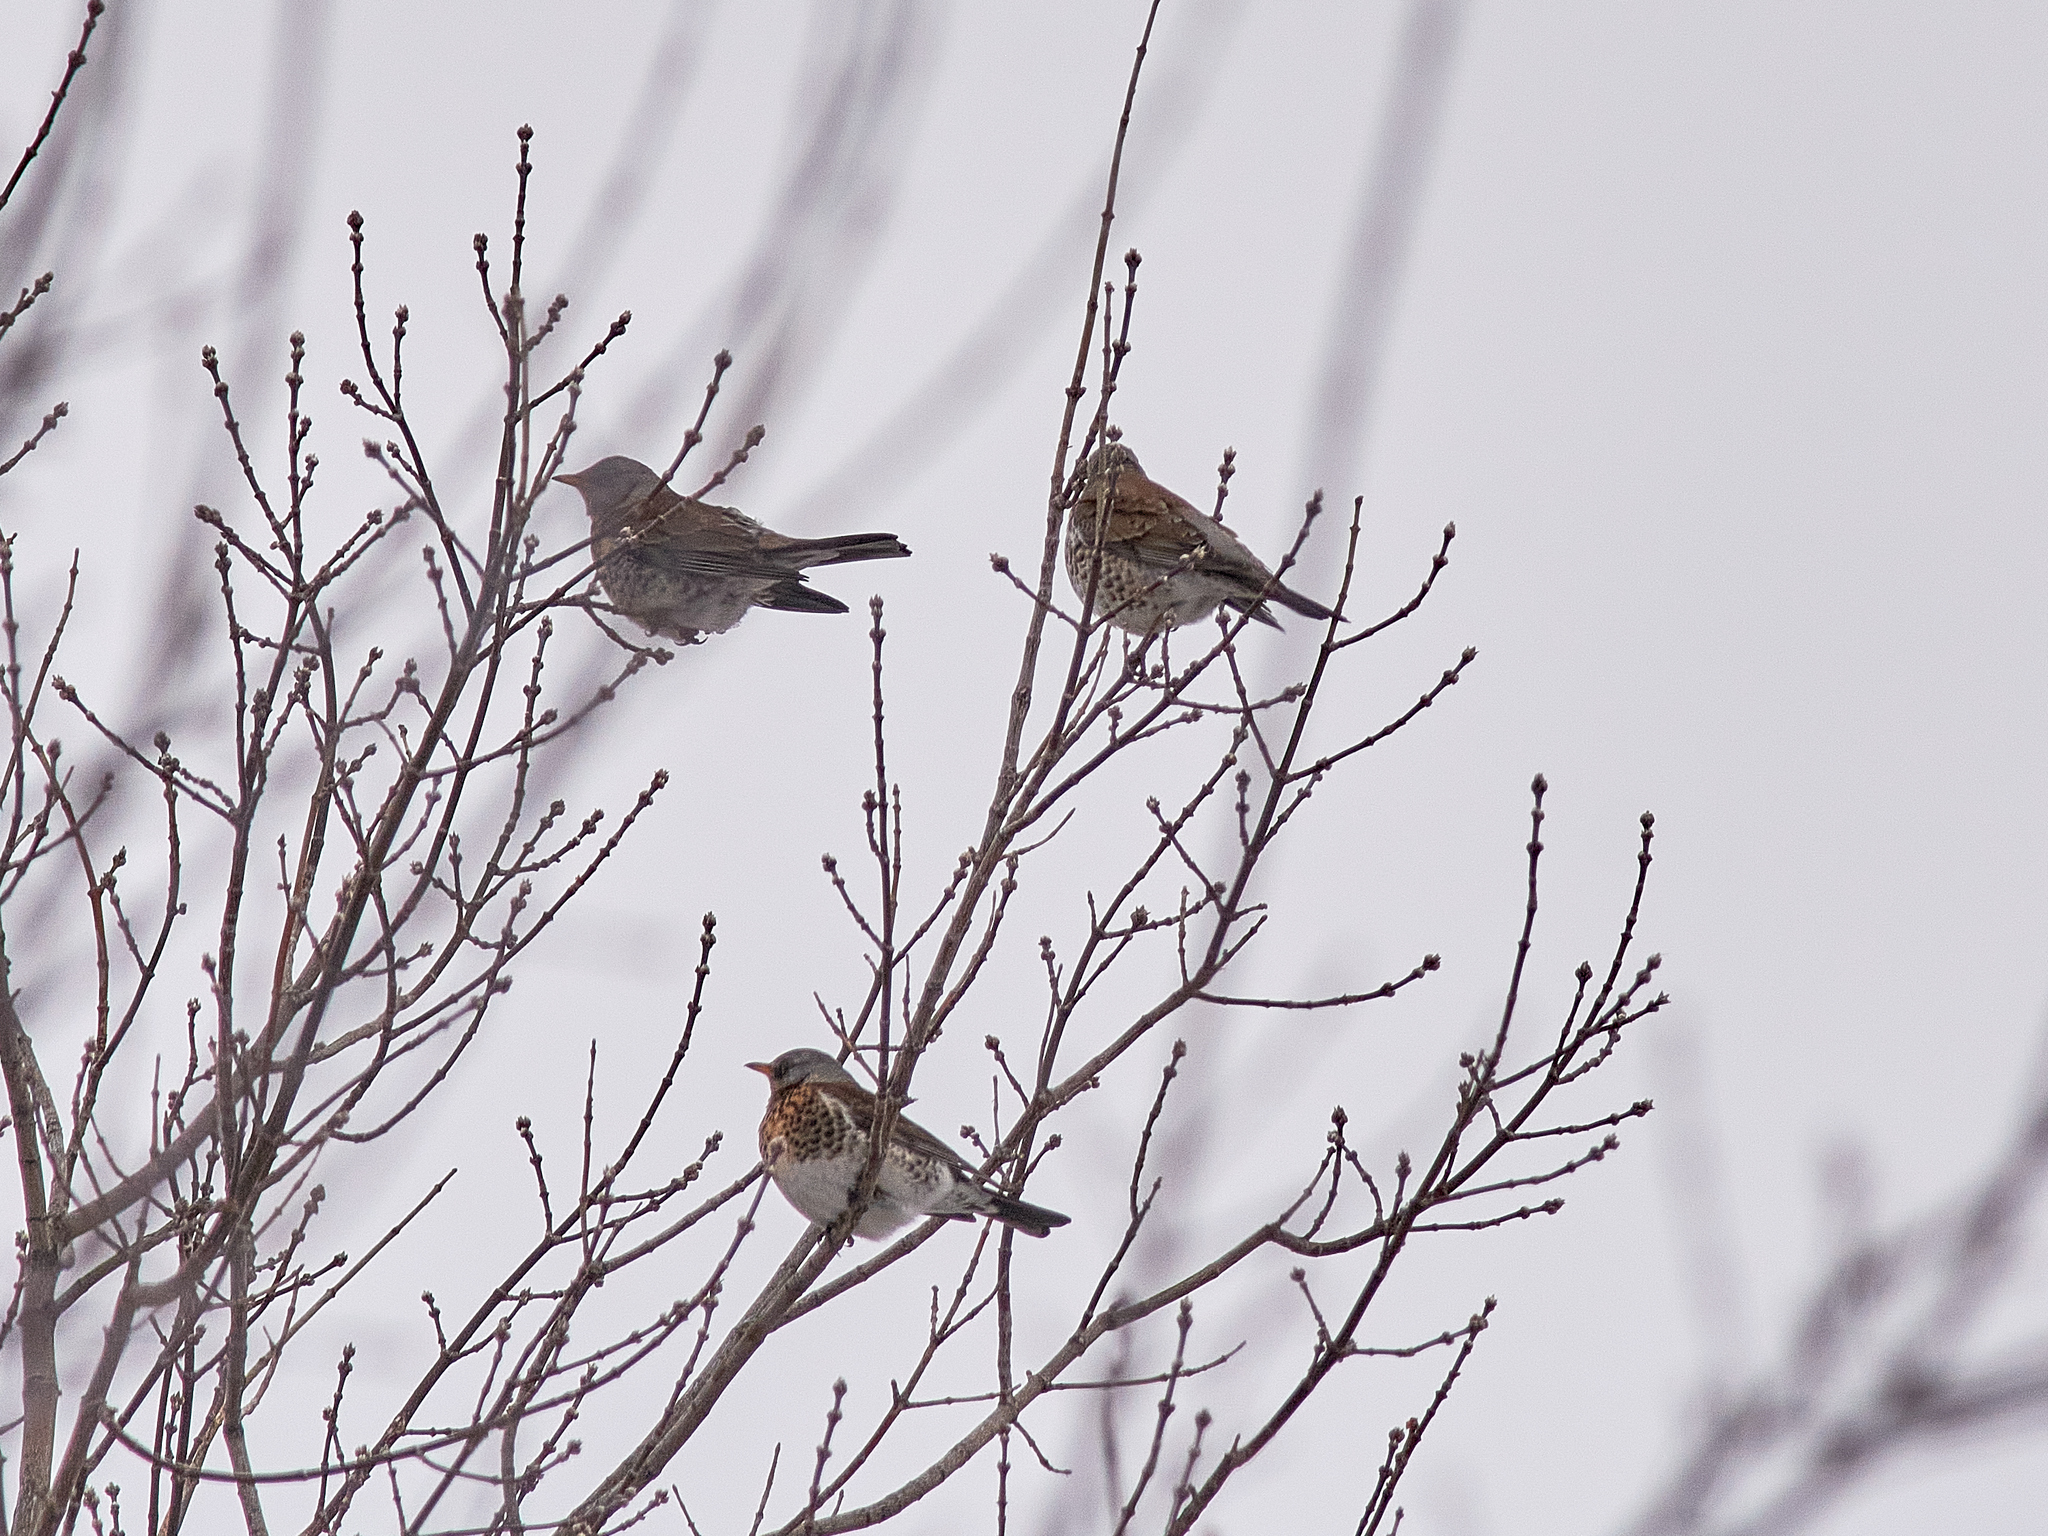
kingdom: Animalia
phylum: Chordata
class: Aves
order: Passeriformes
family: Turdidae
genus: Turdus
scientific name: Turdus pilaris
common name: Fieldfare
